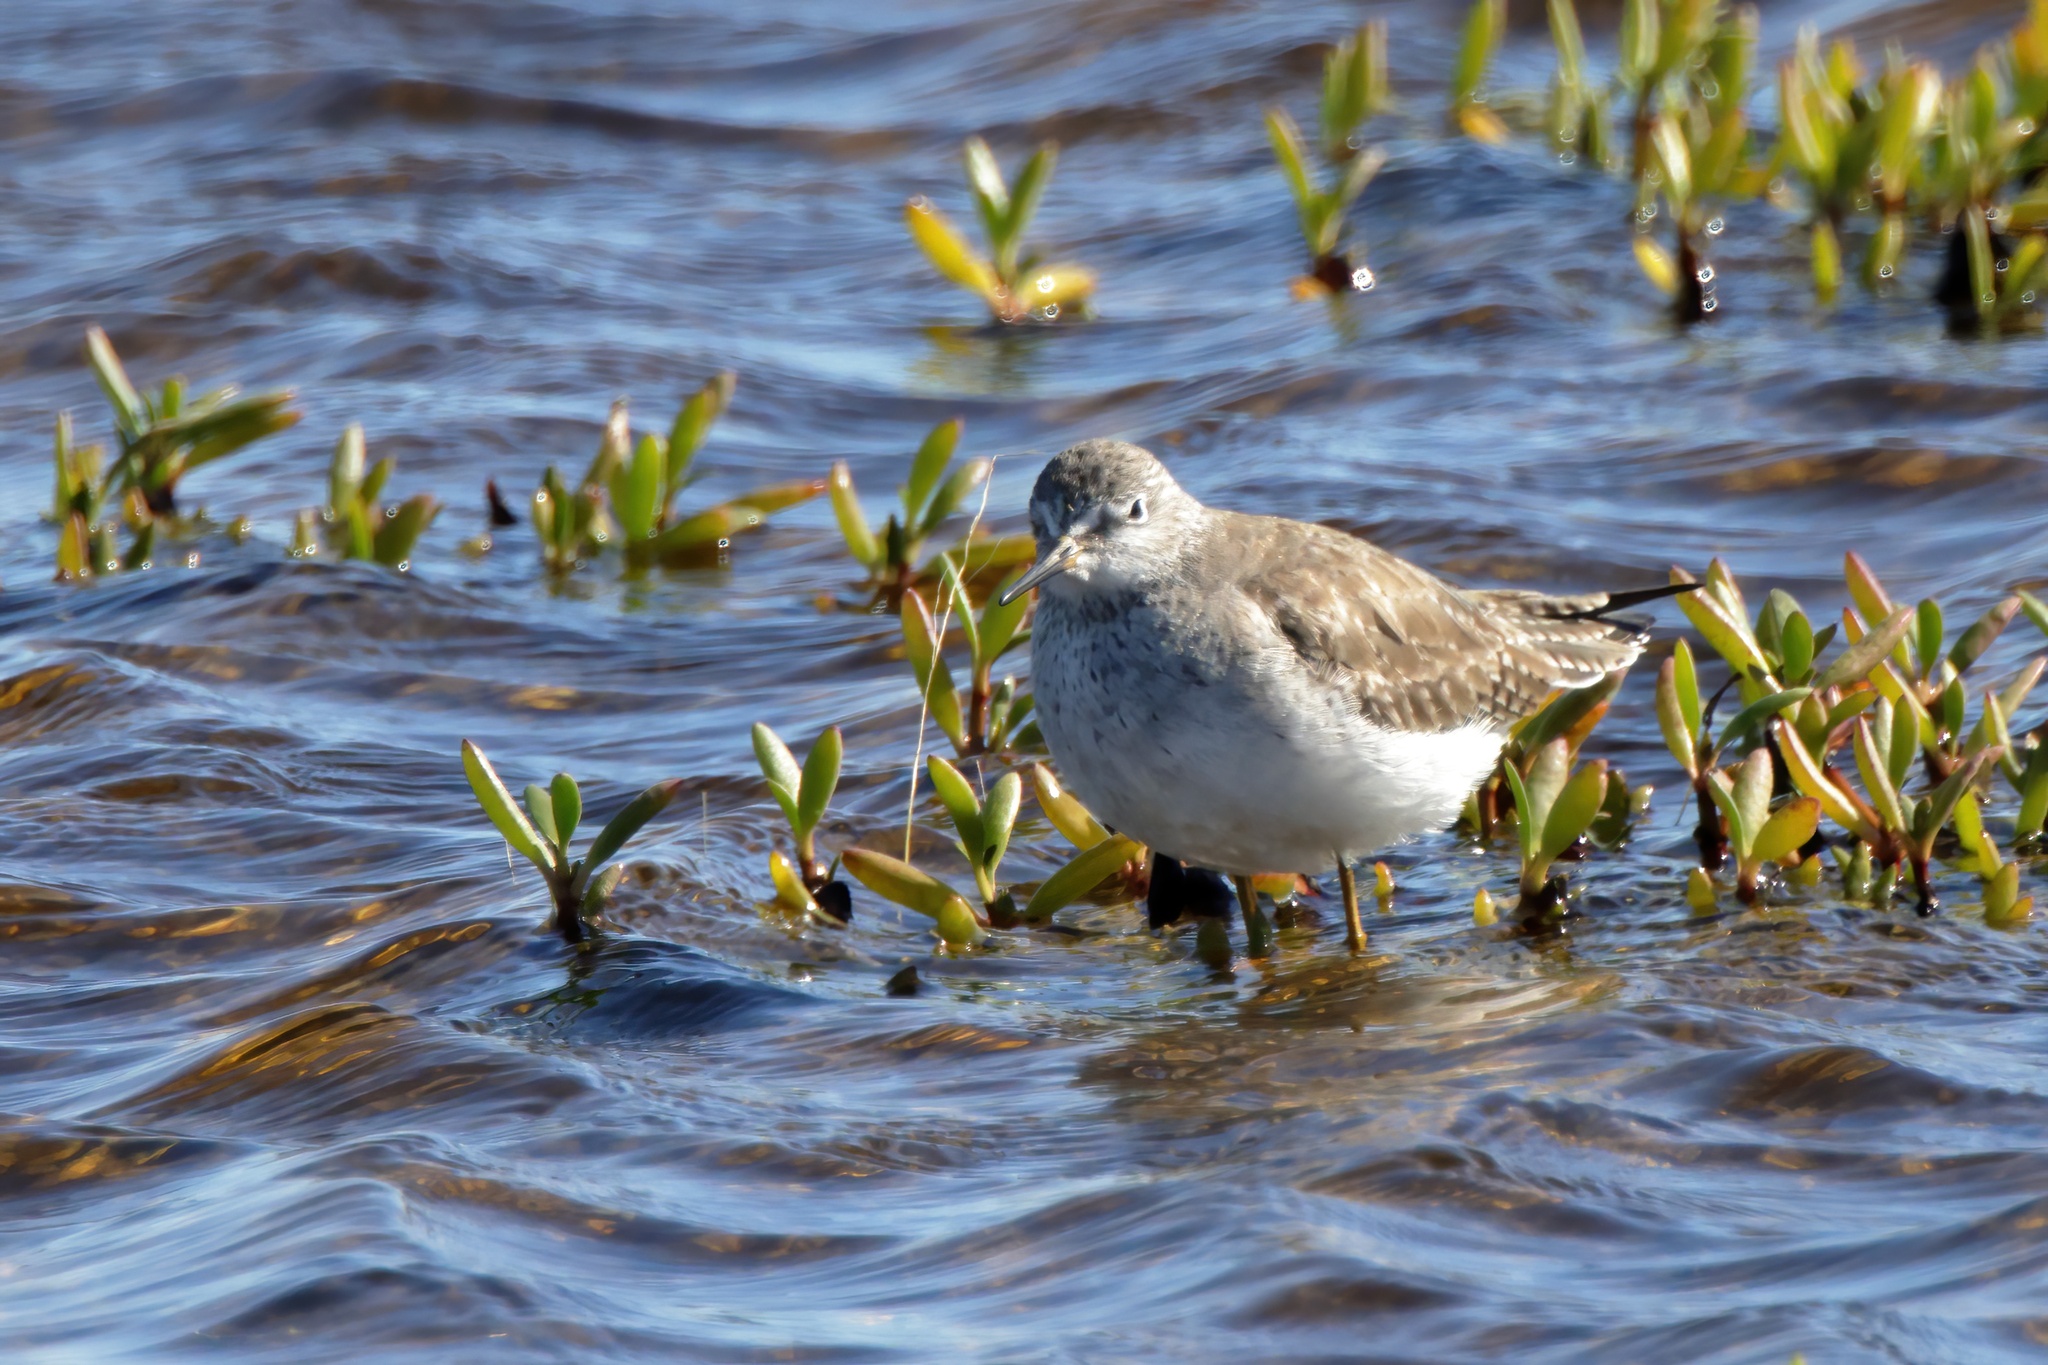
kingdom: Animalia
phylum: Chordata
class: Aves
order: Charadriiformes
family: Scolopacidae
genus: Tringa
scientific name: Tringa flavipes
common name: Lesser yellowlegs
